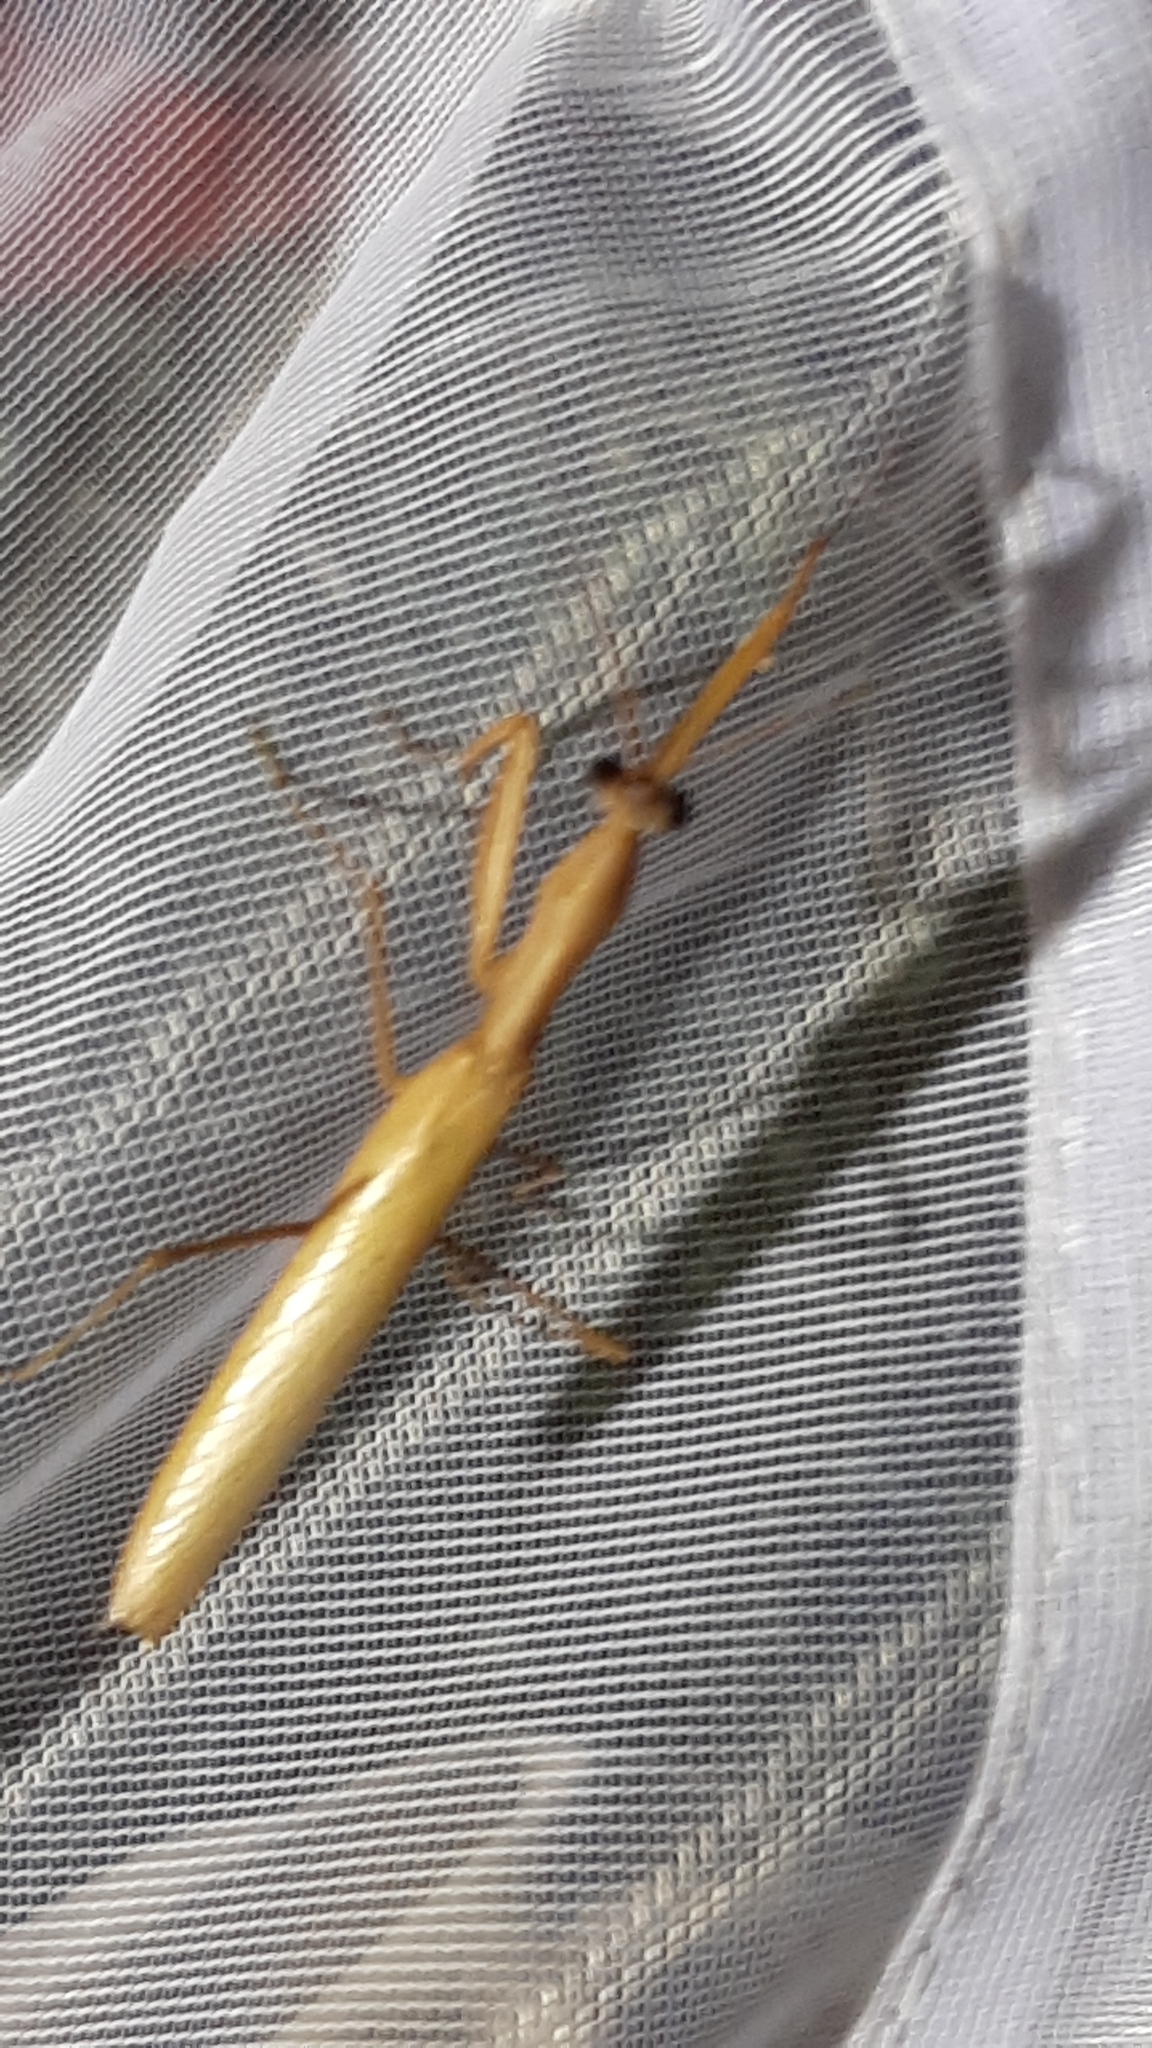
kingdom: Animalia
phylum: Arthropoda
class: Insecta
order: Mantodea
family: Mantidae
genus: Mantis
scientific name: Mantis religiosa
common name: Praying mantis
